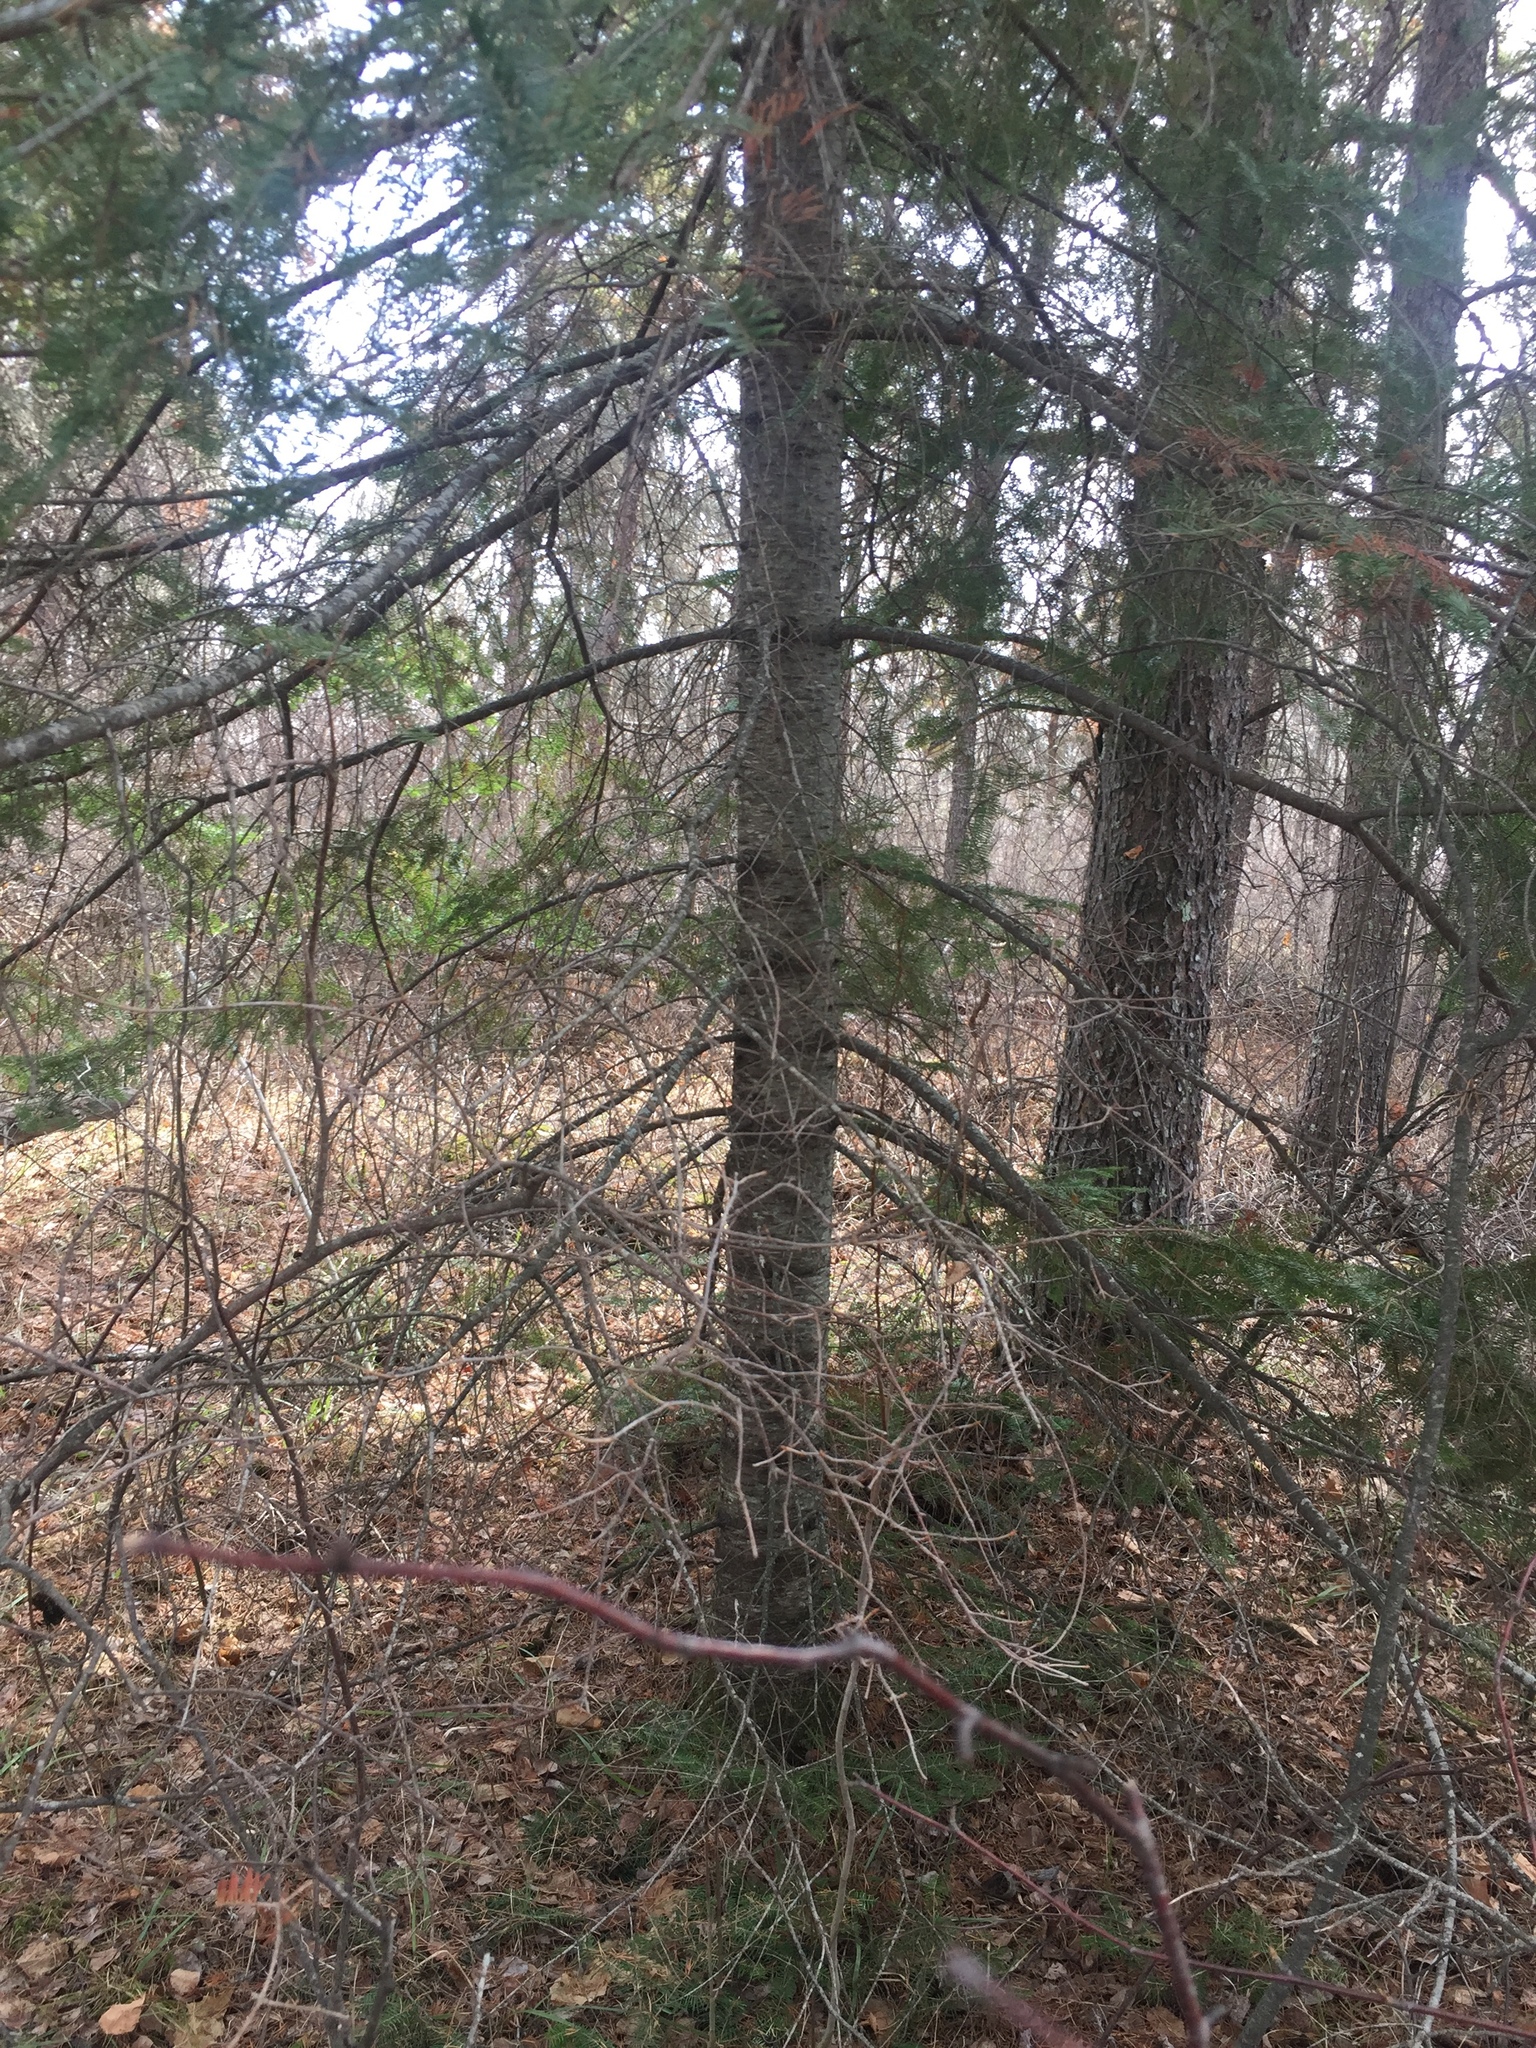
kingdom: Plantae
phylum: Tracheophyta
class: Pinopsida
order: Pinales
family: Pinaceae
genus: Abies
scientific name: Abies balsamea
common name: Balsam fir
